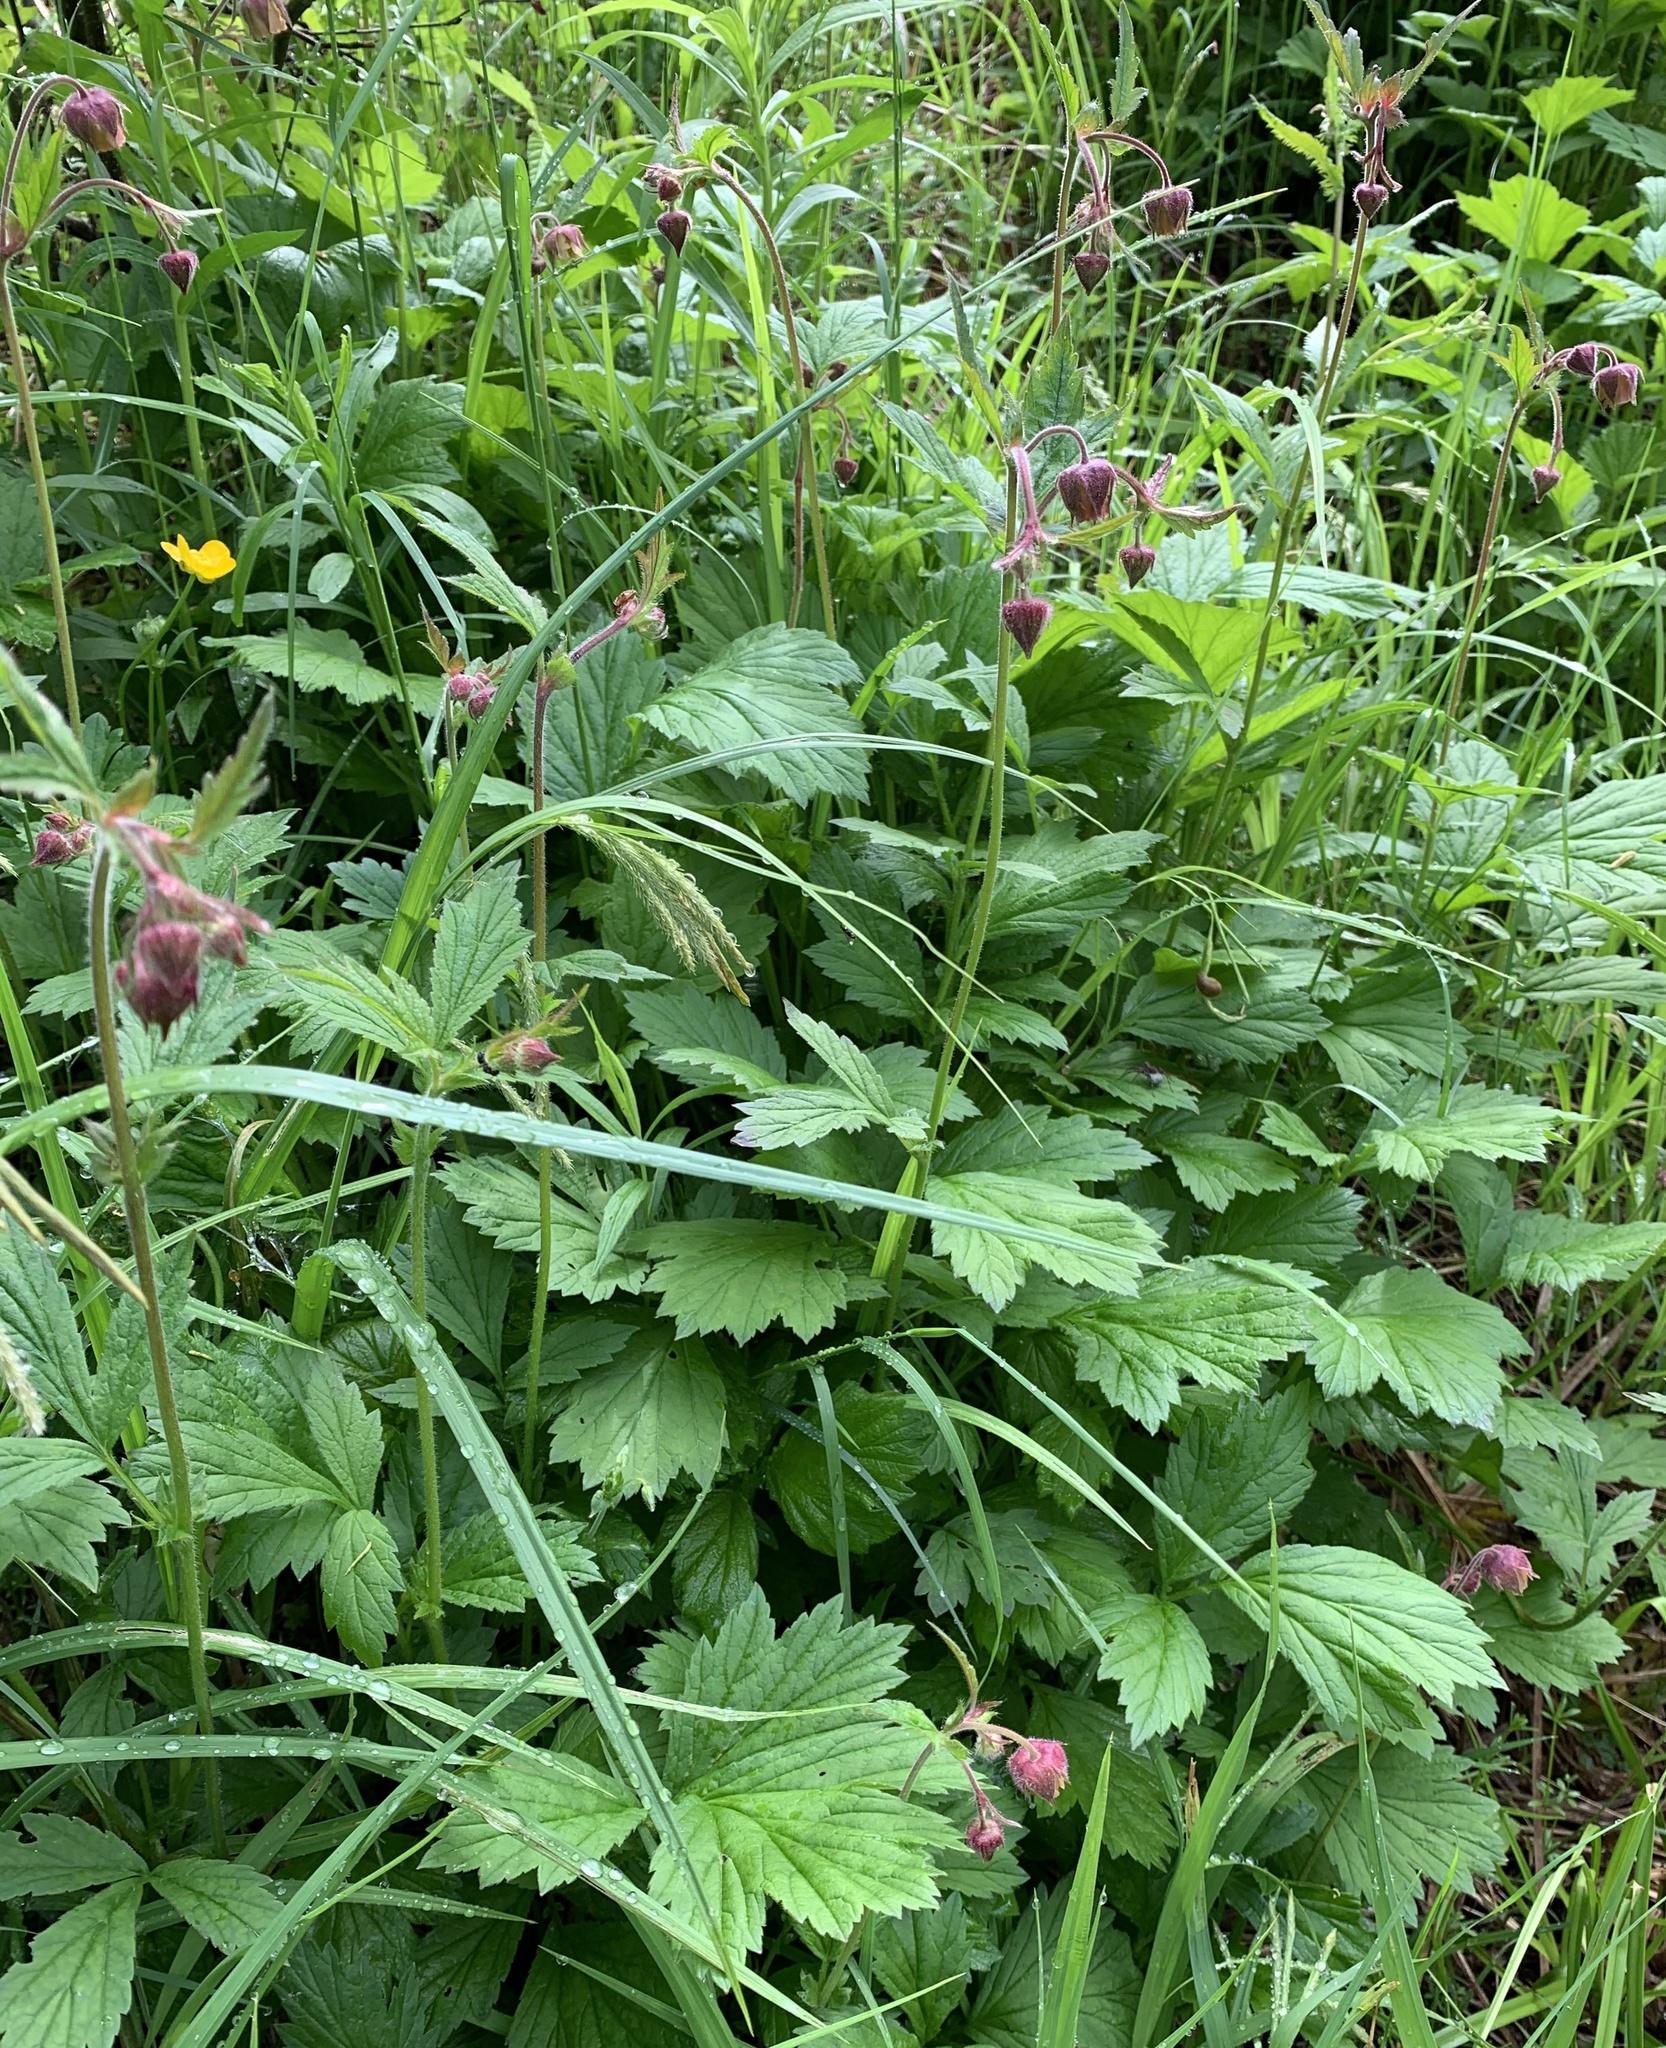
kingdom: Plantae
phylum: Tracheophyta
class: Magnoliopsida
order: Rosales
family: Rosaceae
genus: Geum
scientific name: Geum rivale
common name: Water avens
